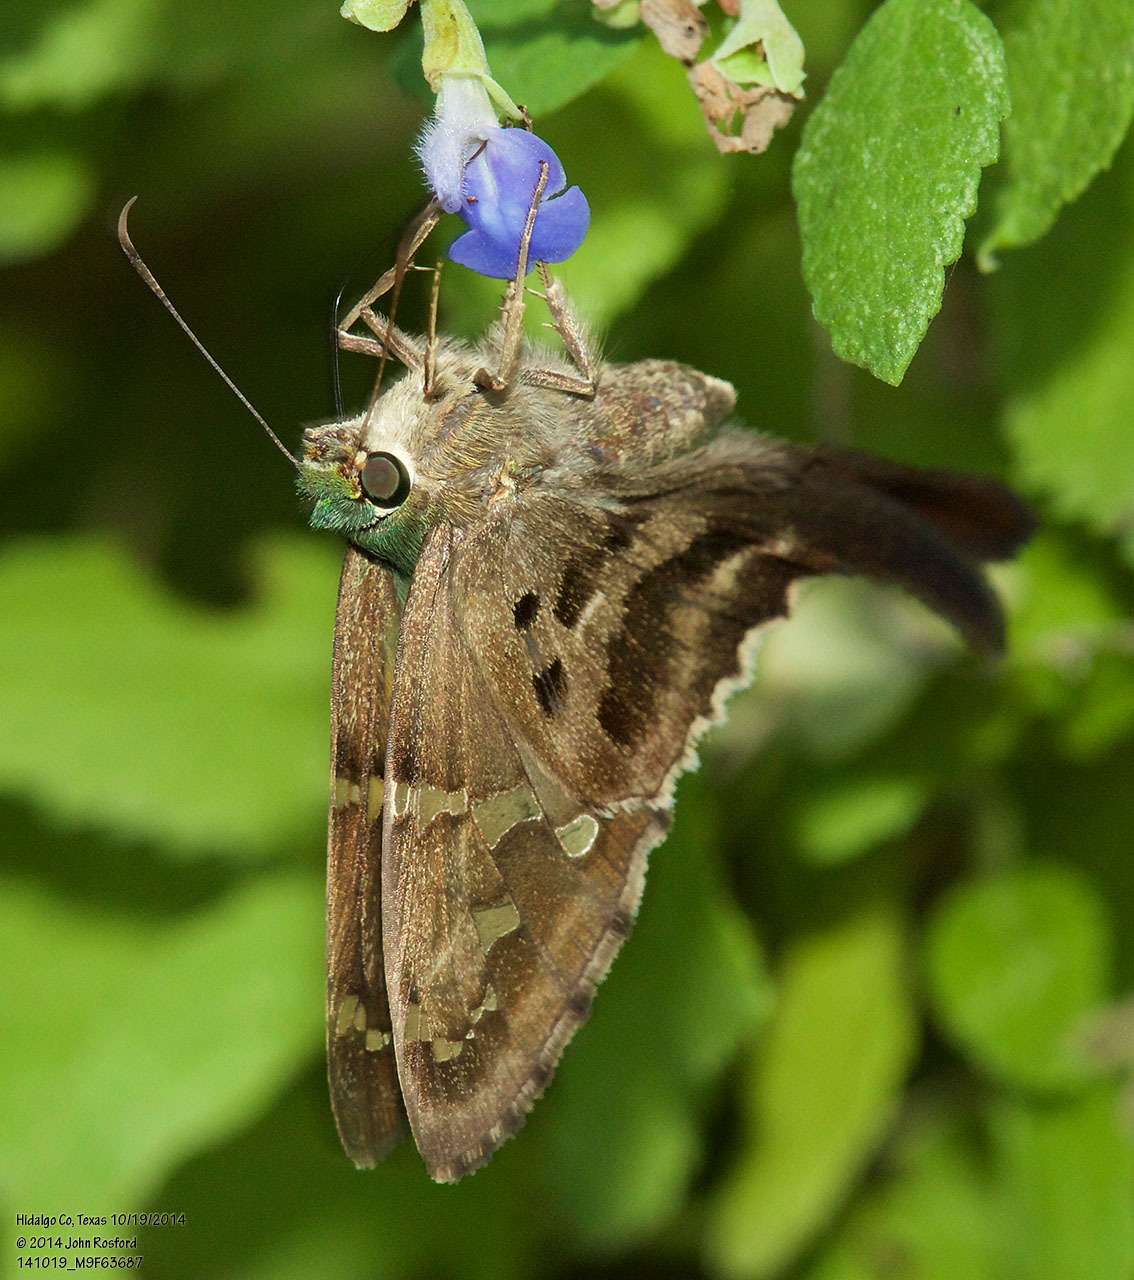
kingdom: Animalia
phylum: Arthropoda
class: Insecta
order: Lepidoptera
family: Hesperiidae
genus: Urbanus
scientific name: Urbanus proteus
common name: Long-tailed skipper
